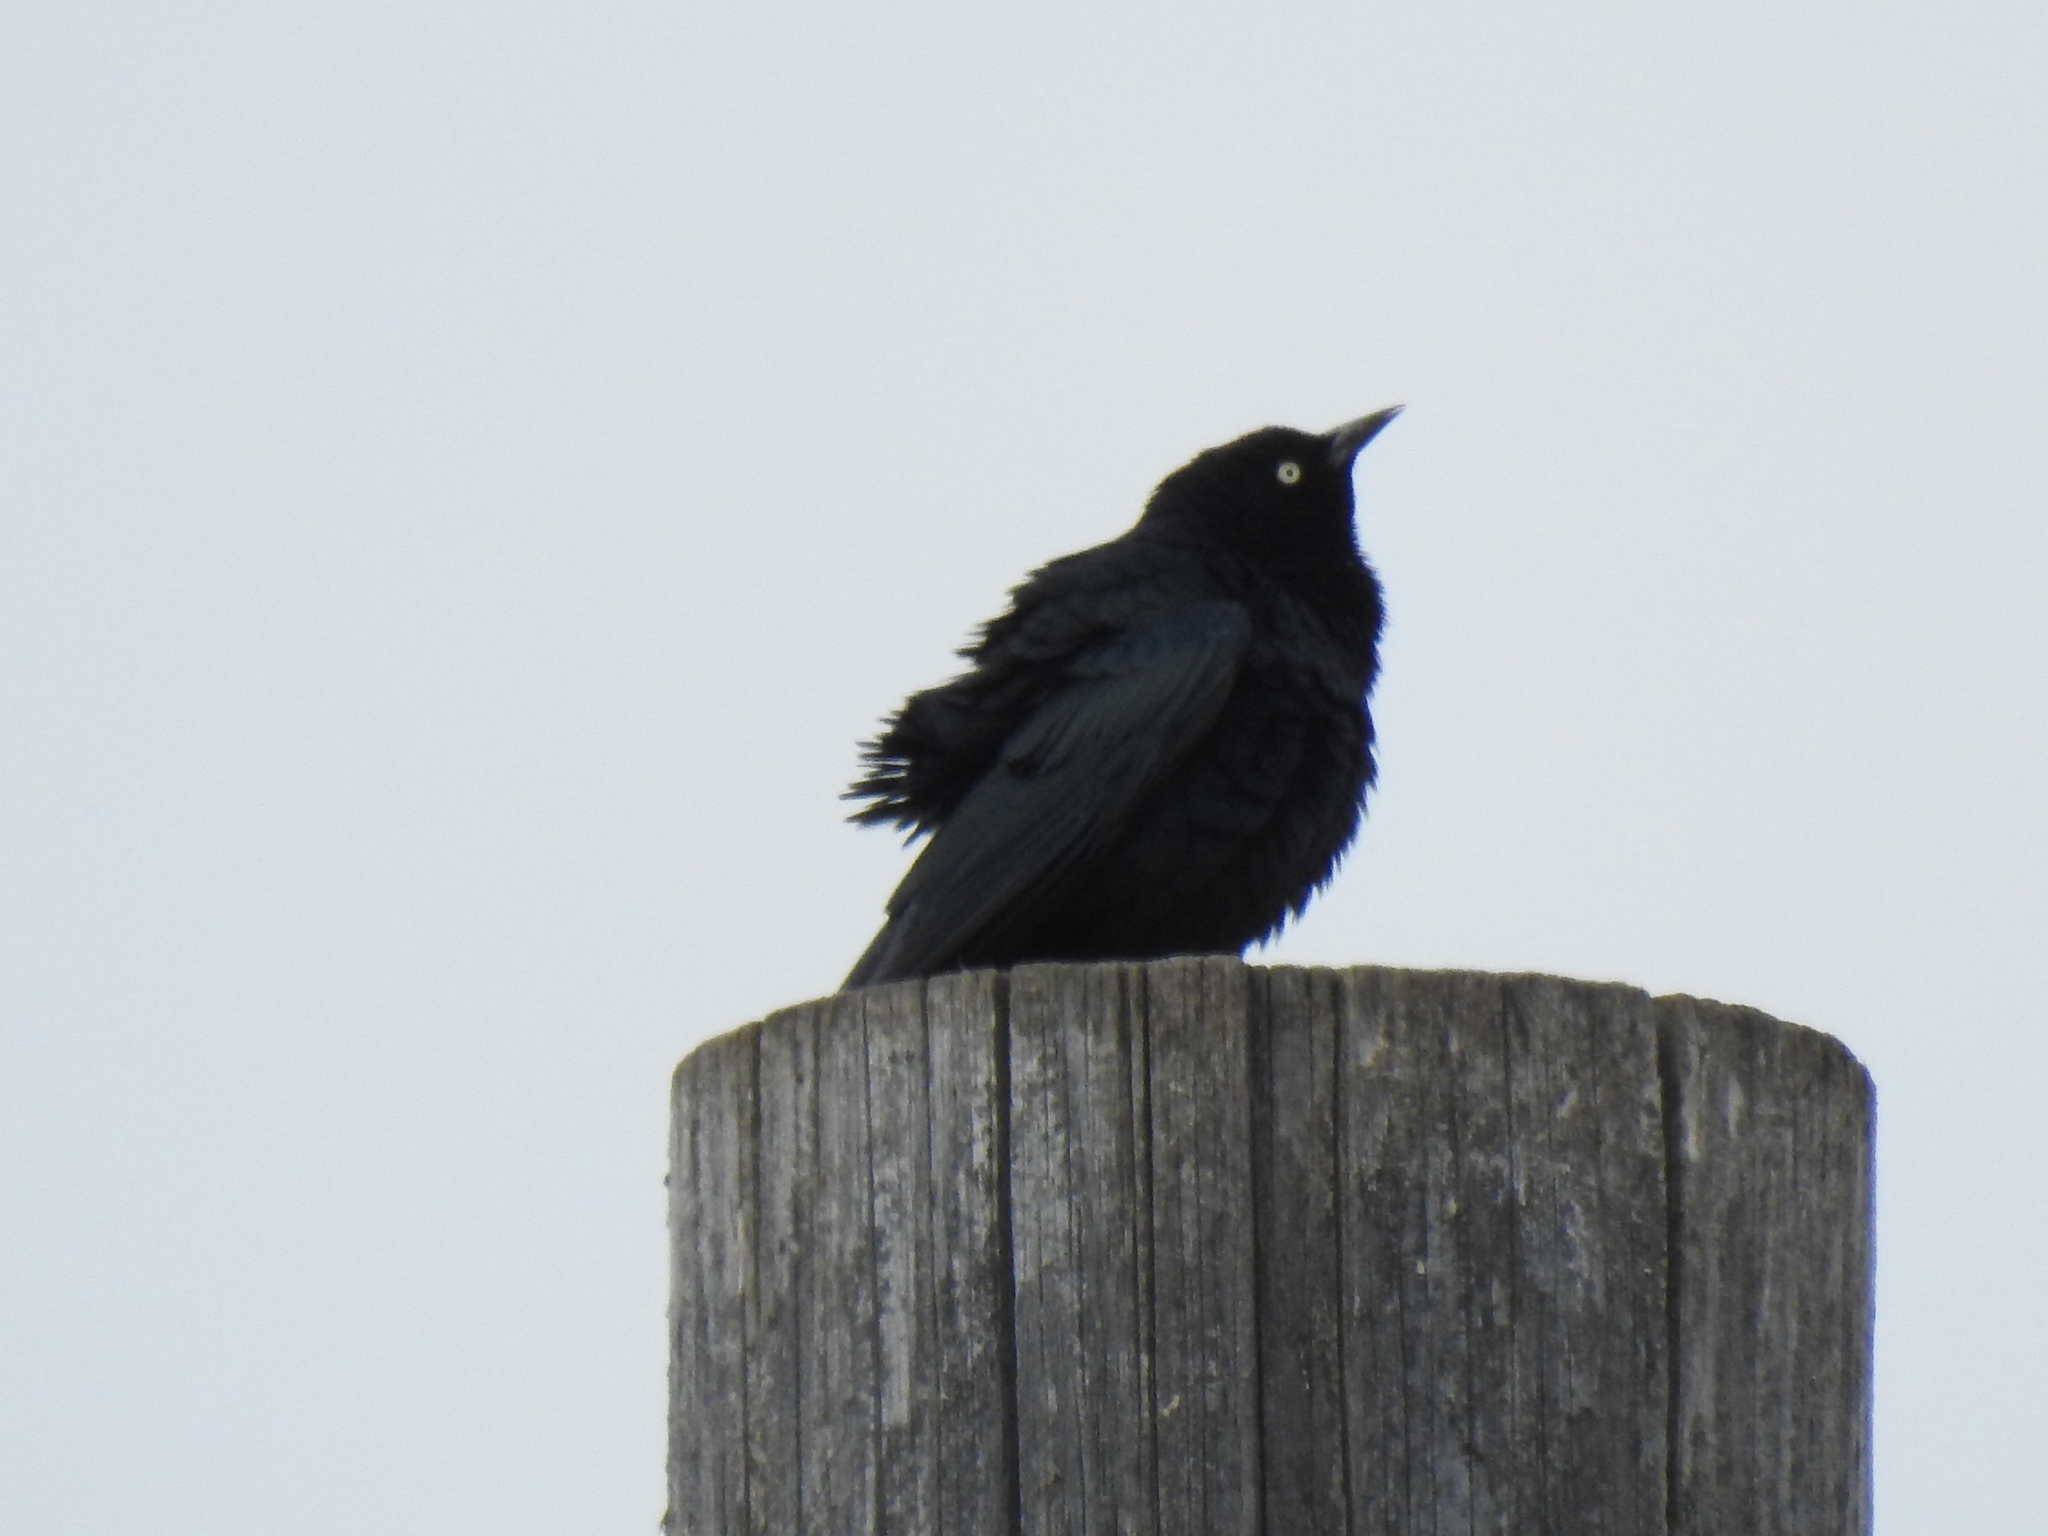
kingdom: Animalia
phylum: Chordata
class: Aves
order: Passeriformes
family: Icteridae
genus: Euphagus
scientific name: Euphagus cyanocephalus
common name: Brewer's blackbird
